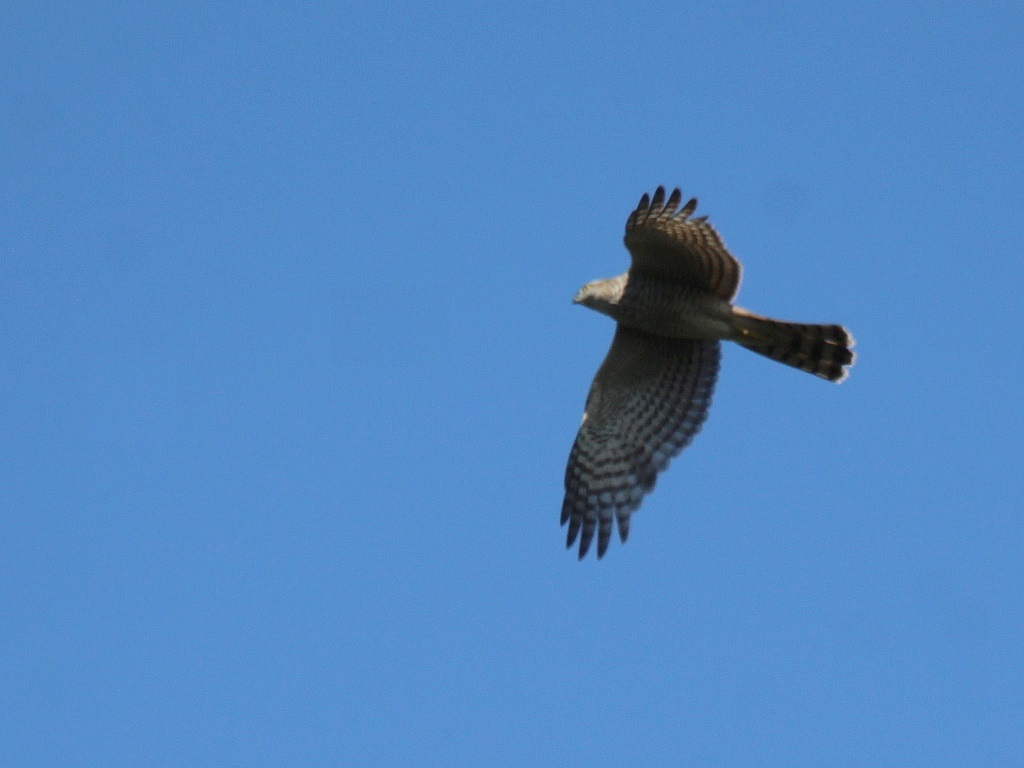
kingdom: Animalia
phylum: Chordata
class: Aves
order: Accipitriformes
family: Accipitridae
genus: Accipiter
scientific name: Accipiter nisus
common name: Eurasian sparrowhawk
